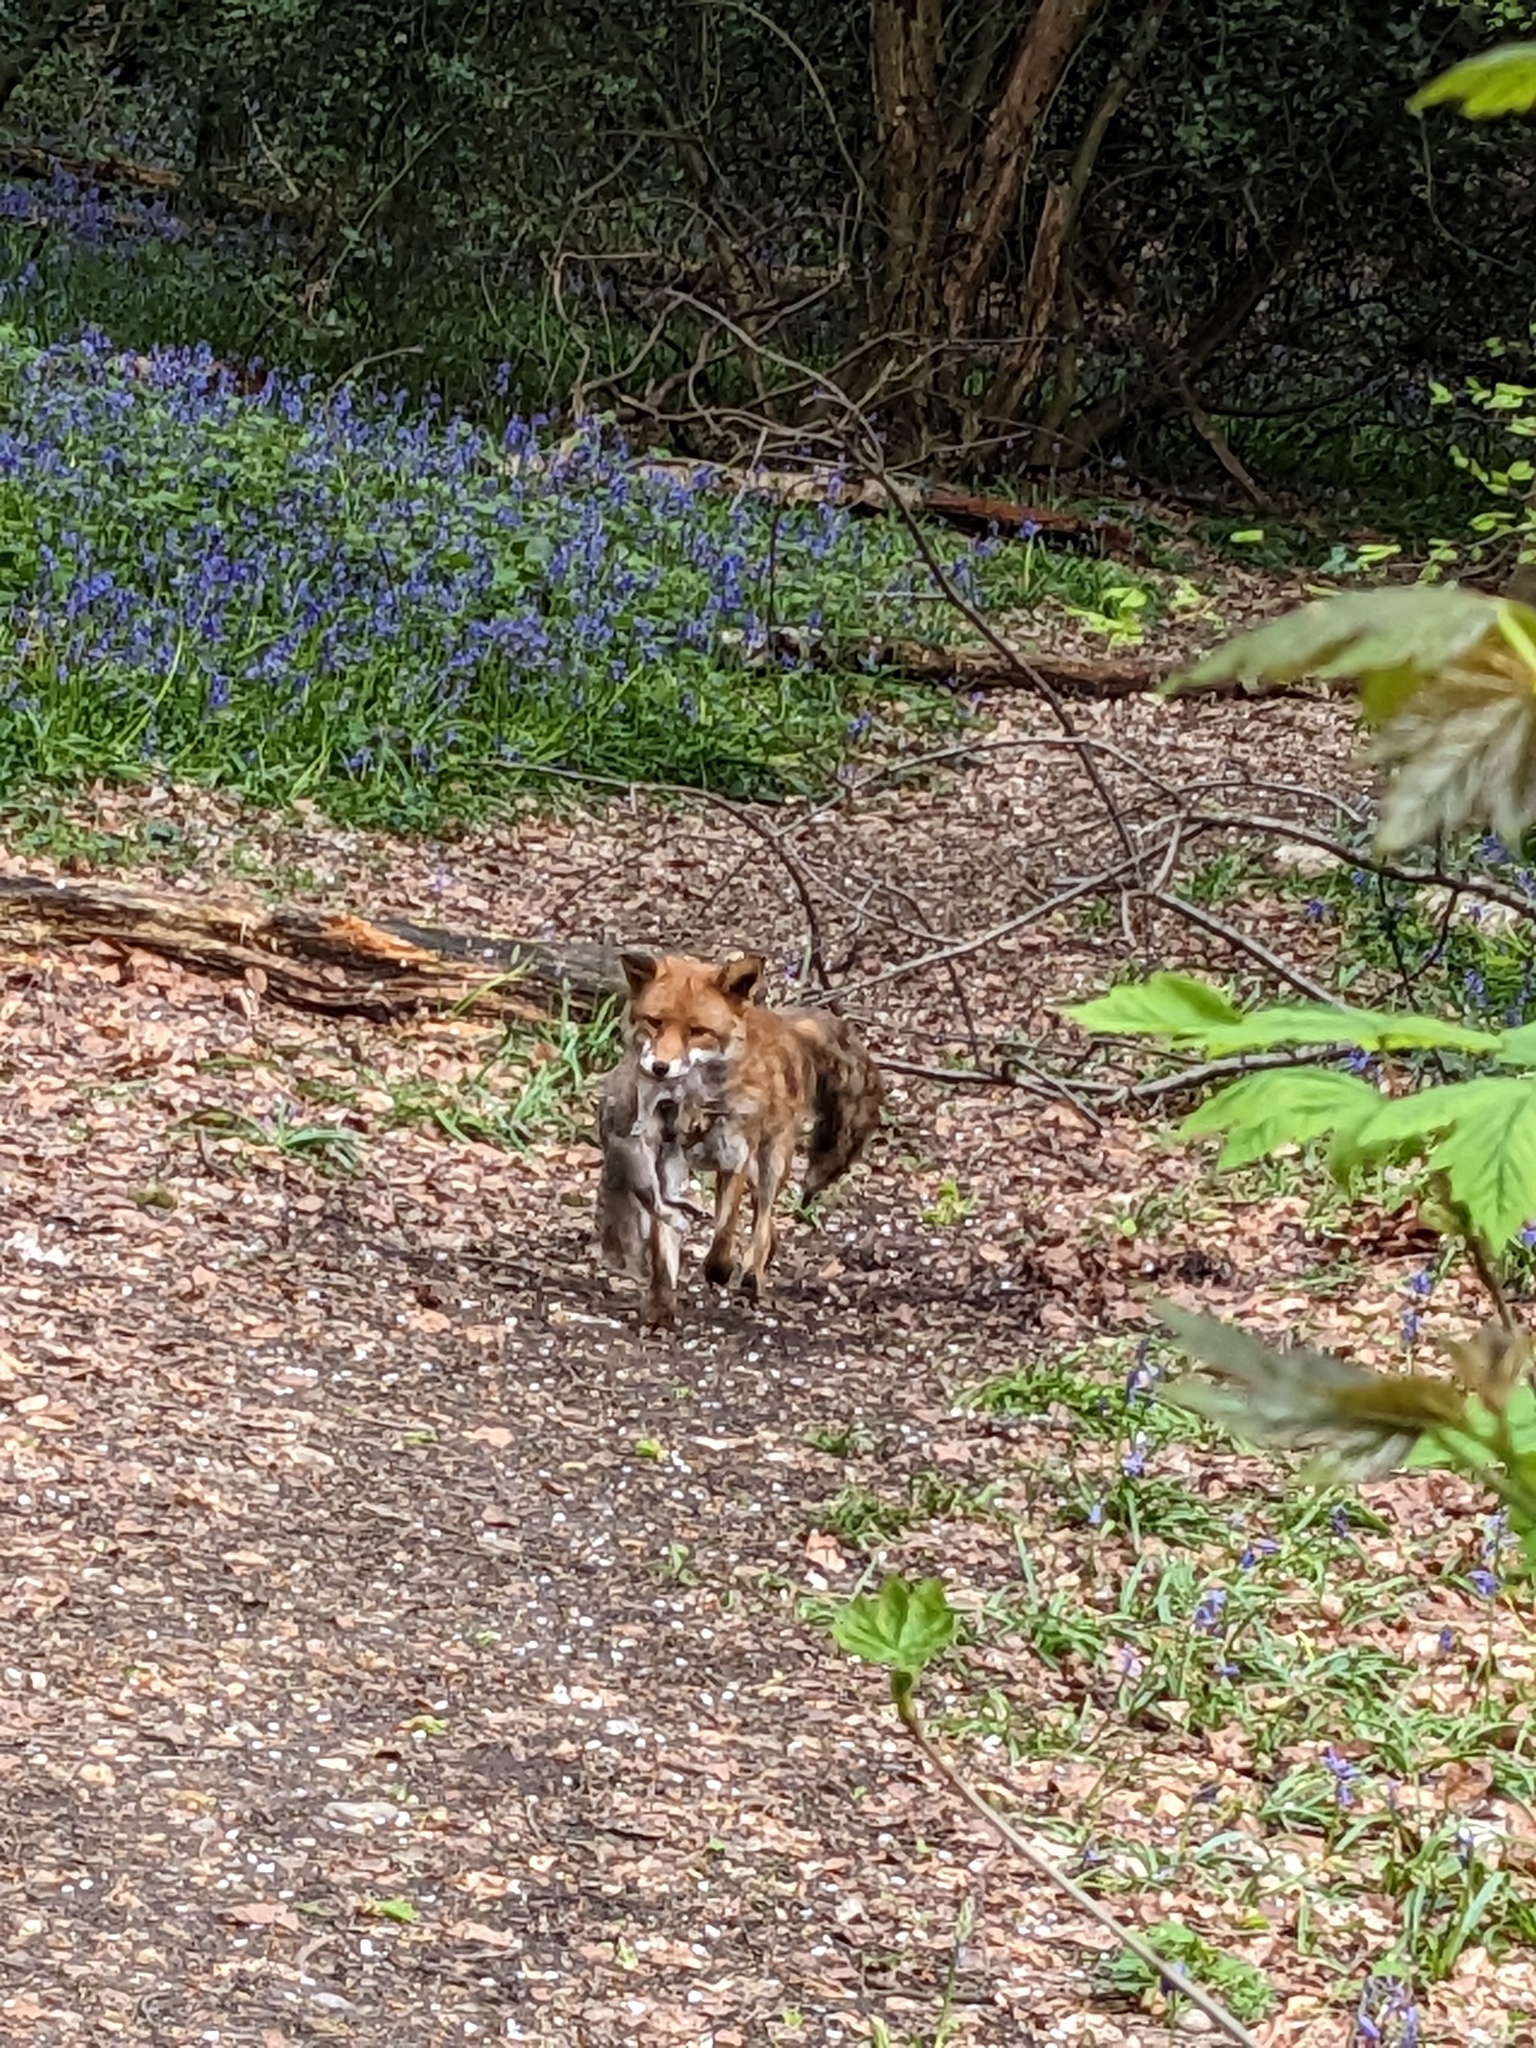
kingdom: Animalia
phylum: Chordata
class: Mammalia
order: Carnivora
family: Canidae
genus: Vulpes
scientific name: Vulpes vulpes
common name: Red fox
